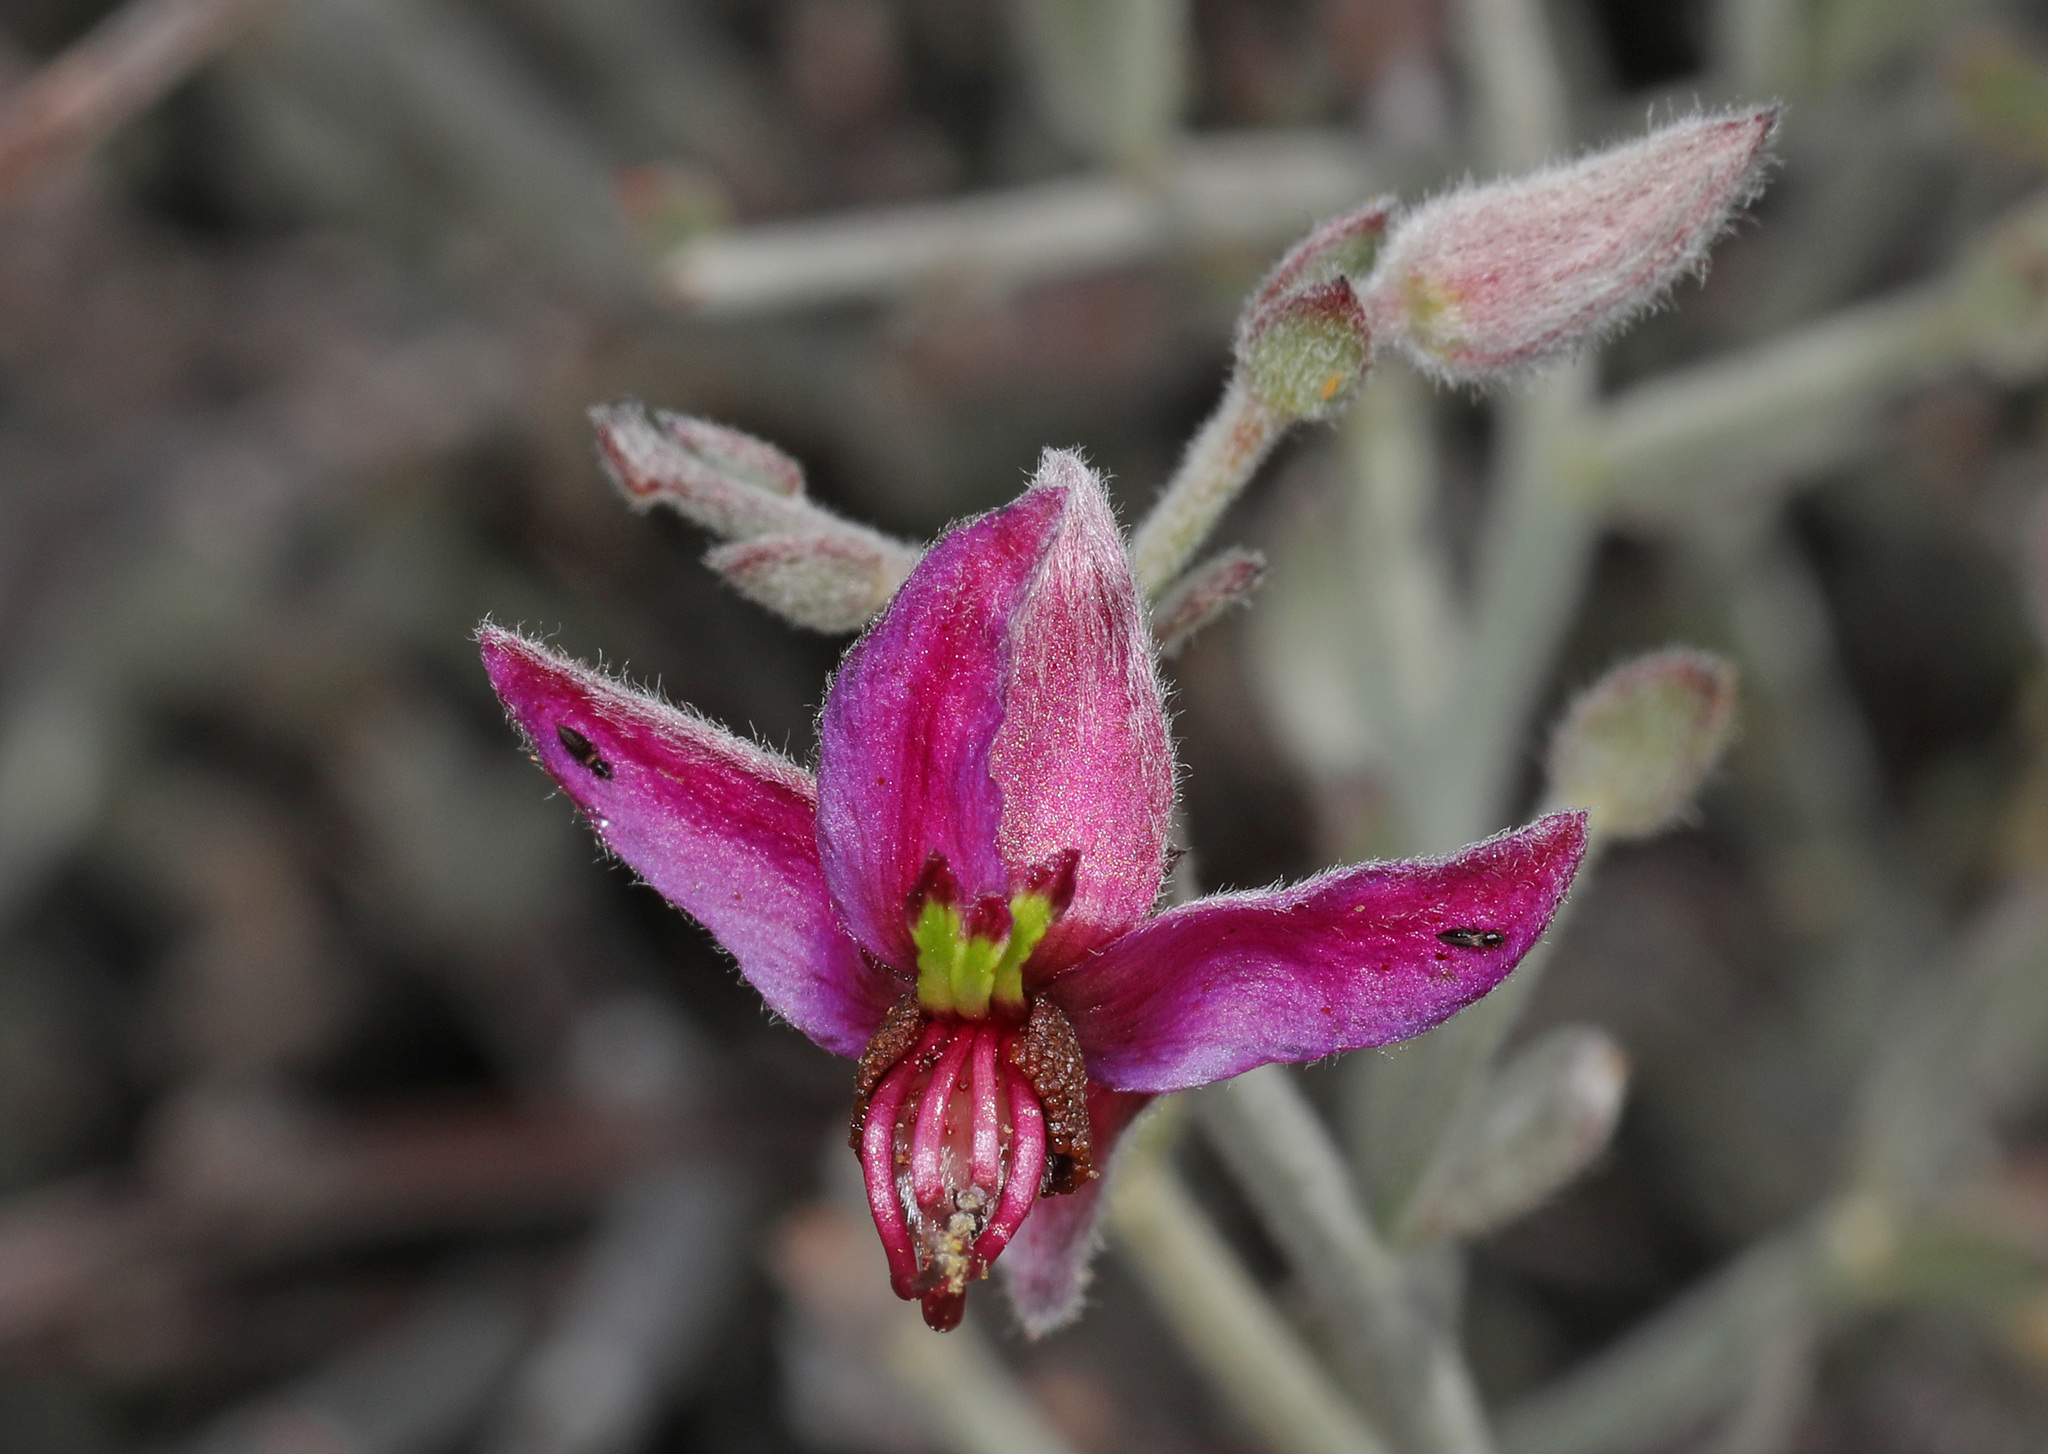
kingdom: Plantae
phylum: Tracheophyta
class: Magnoliopsida
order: Zygophyllales
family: Krameriaceae
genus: Krameria
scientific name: Krameria bicolor
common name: White ratany
